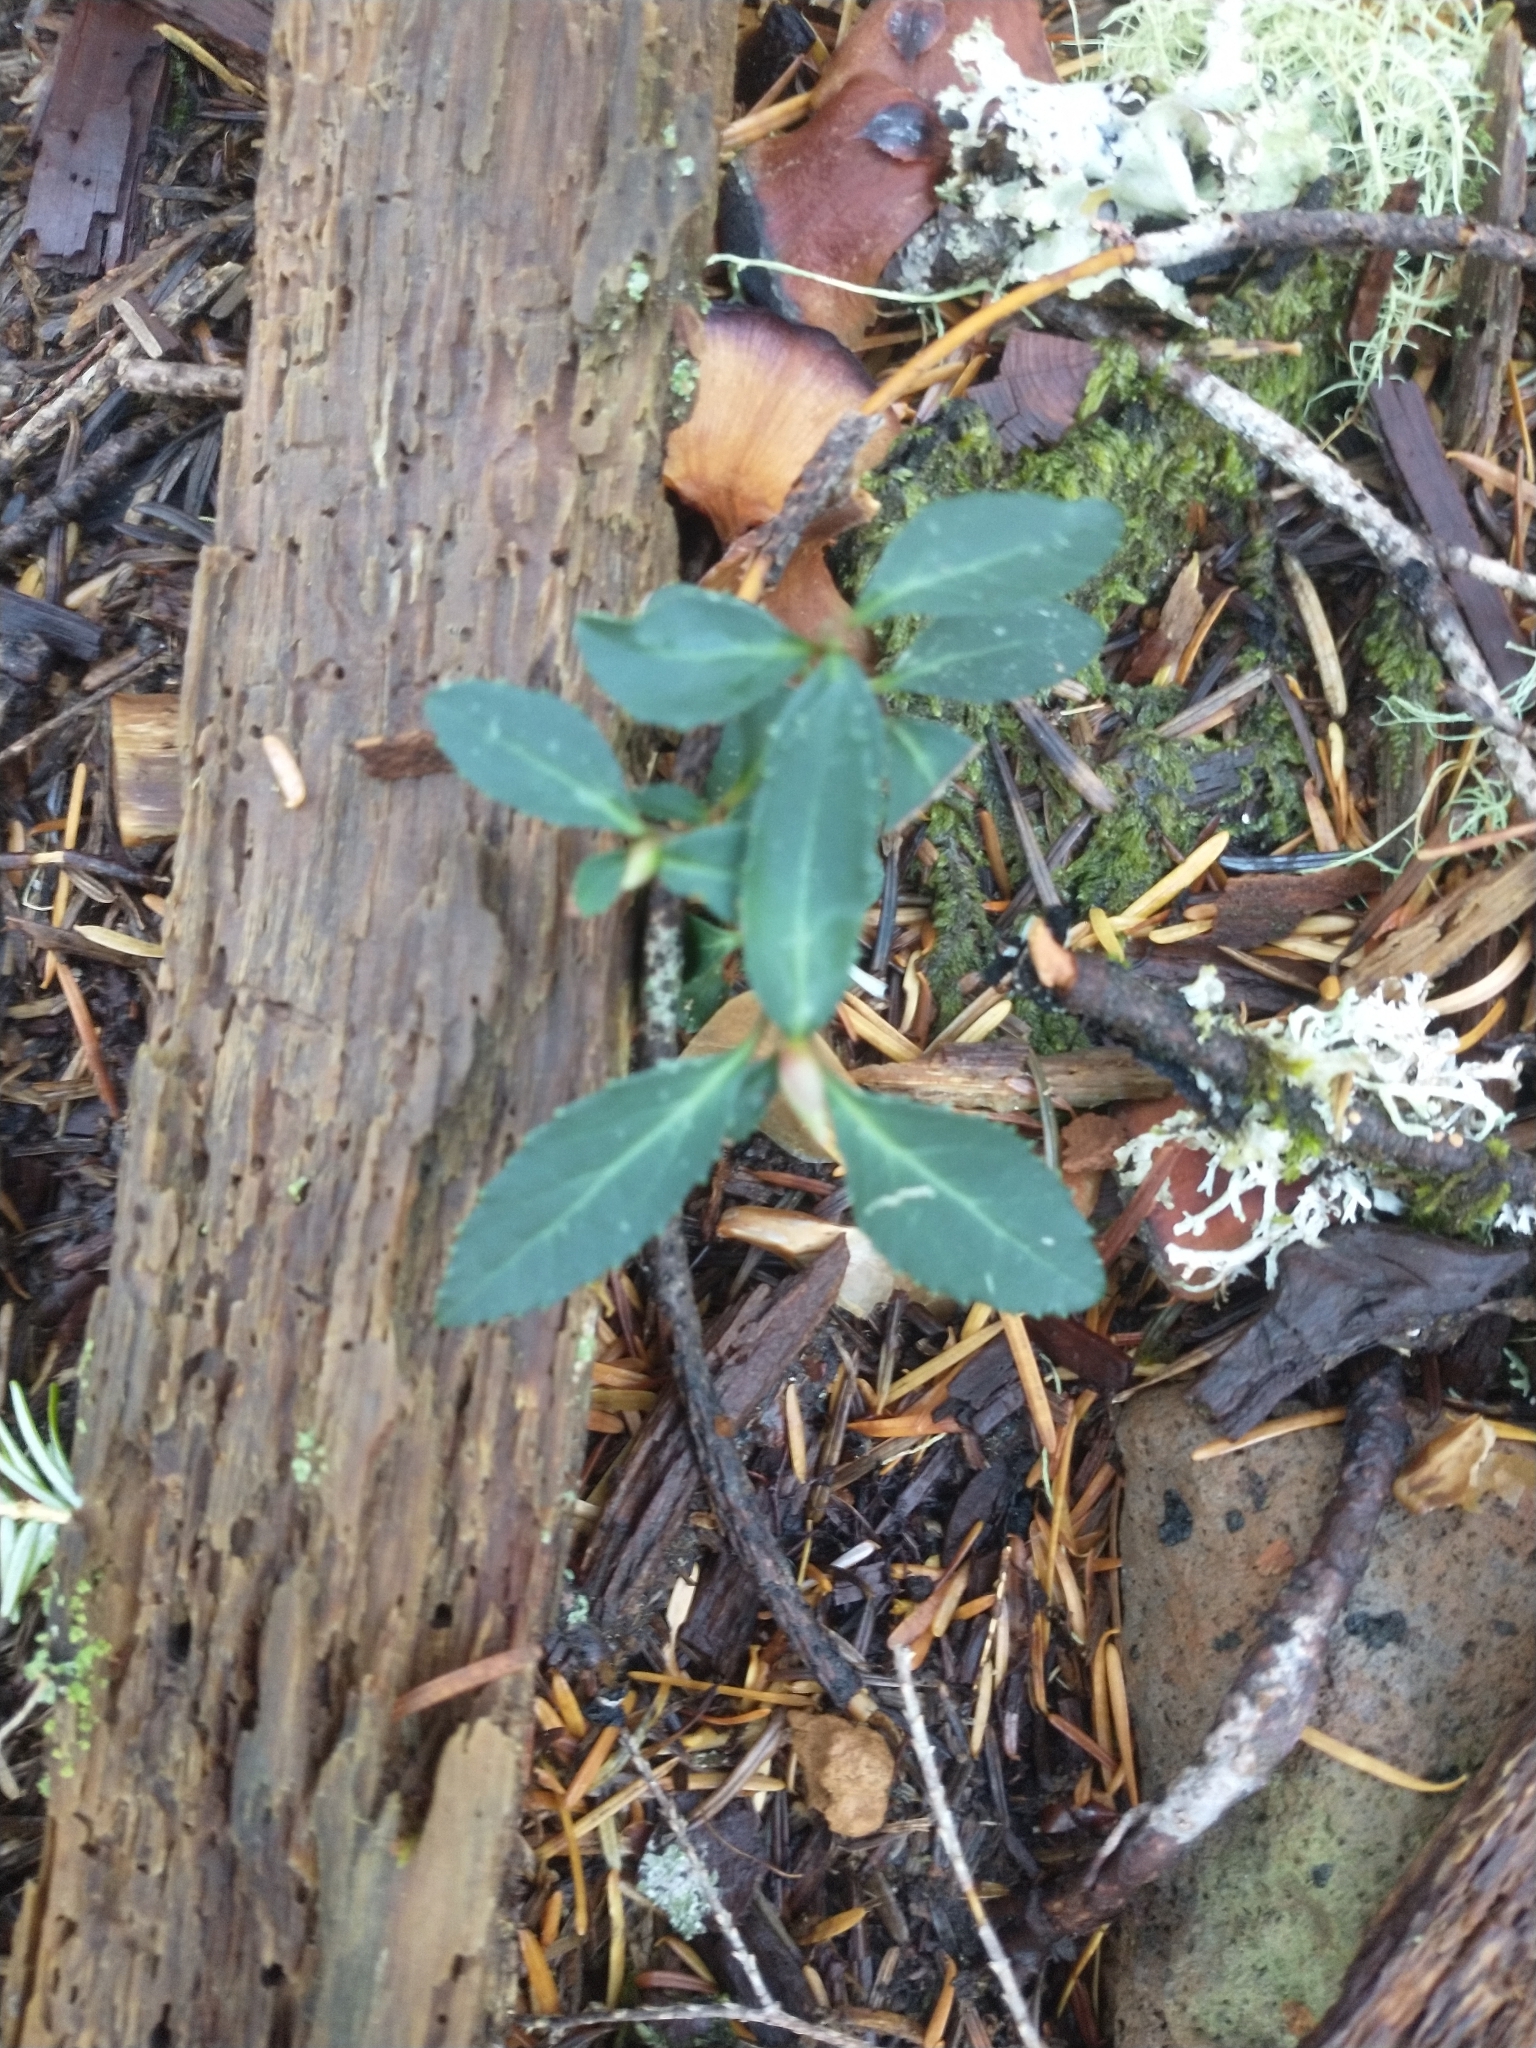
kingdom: Plantae
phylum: Tracheophyta
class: Magnoliopsida
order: Ericales
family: Ericaceae
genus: Chimaphila
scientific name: Chimaphila menziesii
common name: Menzies' pipsissewa
